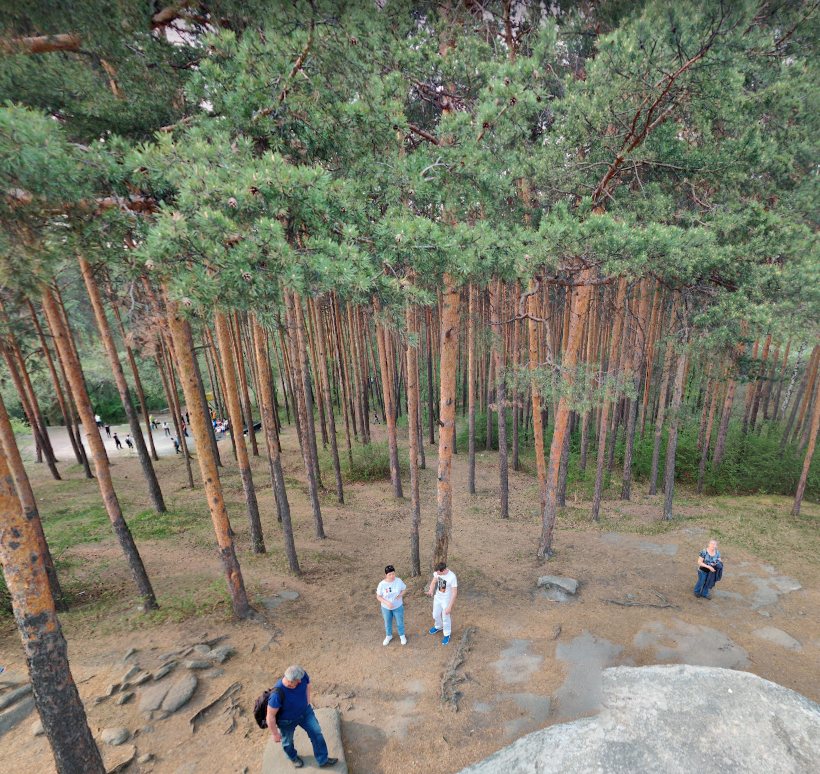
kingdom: Plantae
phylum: Tracheophyta
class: Pinopsida
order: Pinales
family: Pinaceae
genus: Pinus
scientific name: Pinus sylvestris
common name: Scots pine
